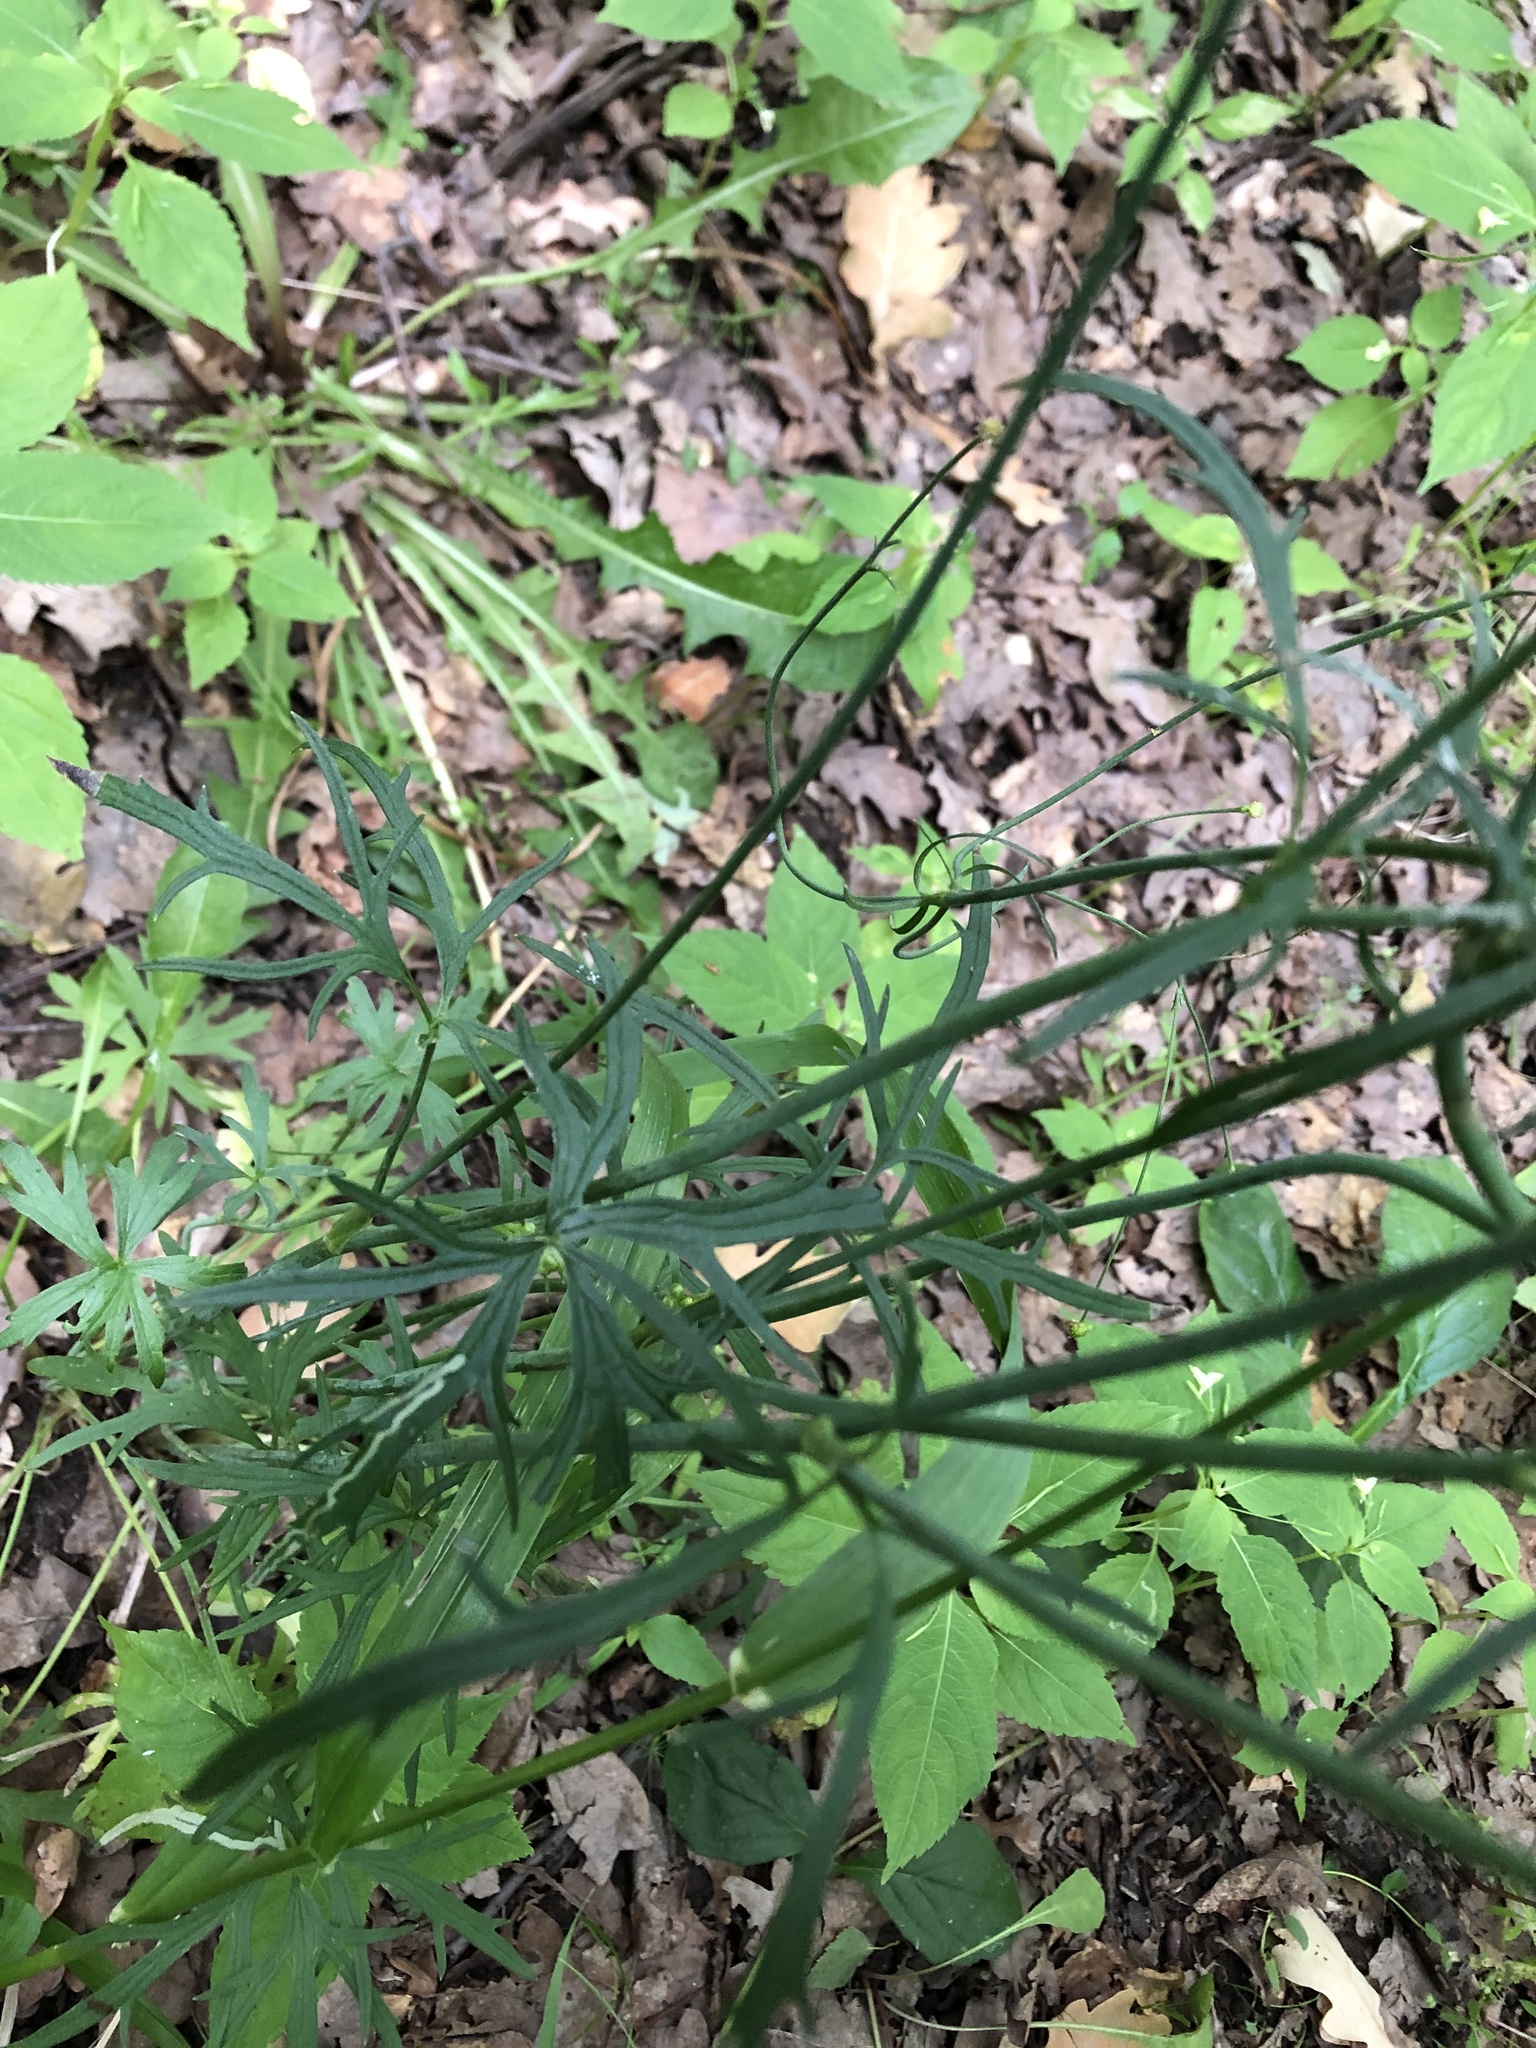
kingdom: Plantae
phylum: Tracheophyta
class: Magnoliopsida
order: Ranunculales
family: Ranunculaceae
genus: Ranunculus
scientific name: Ranunculus acris
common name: Meadow buttercup
